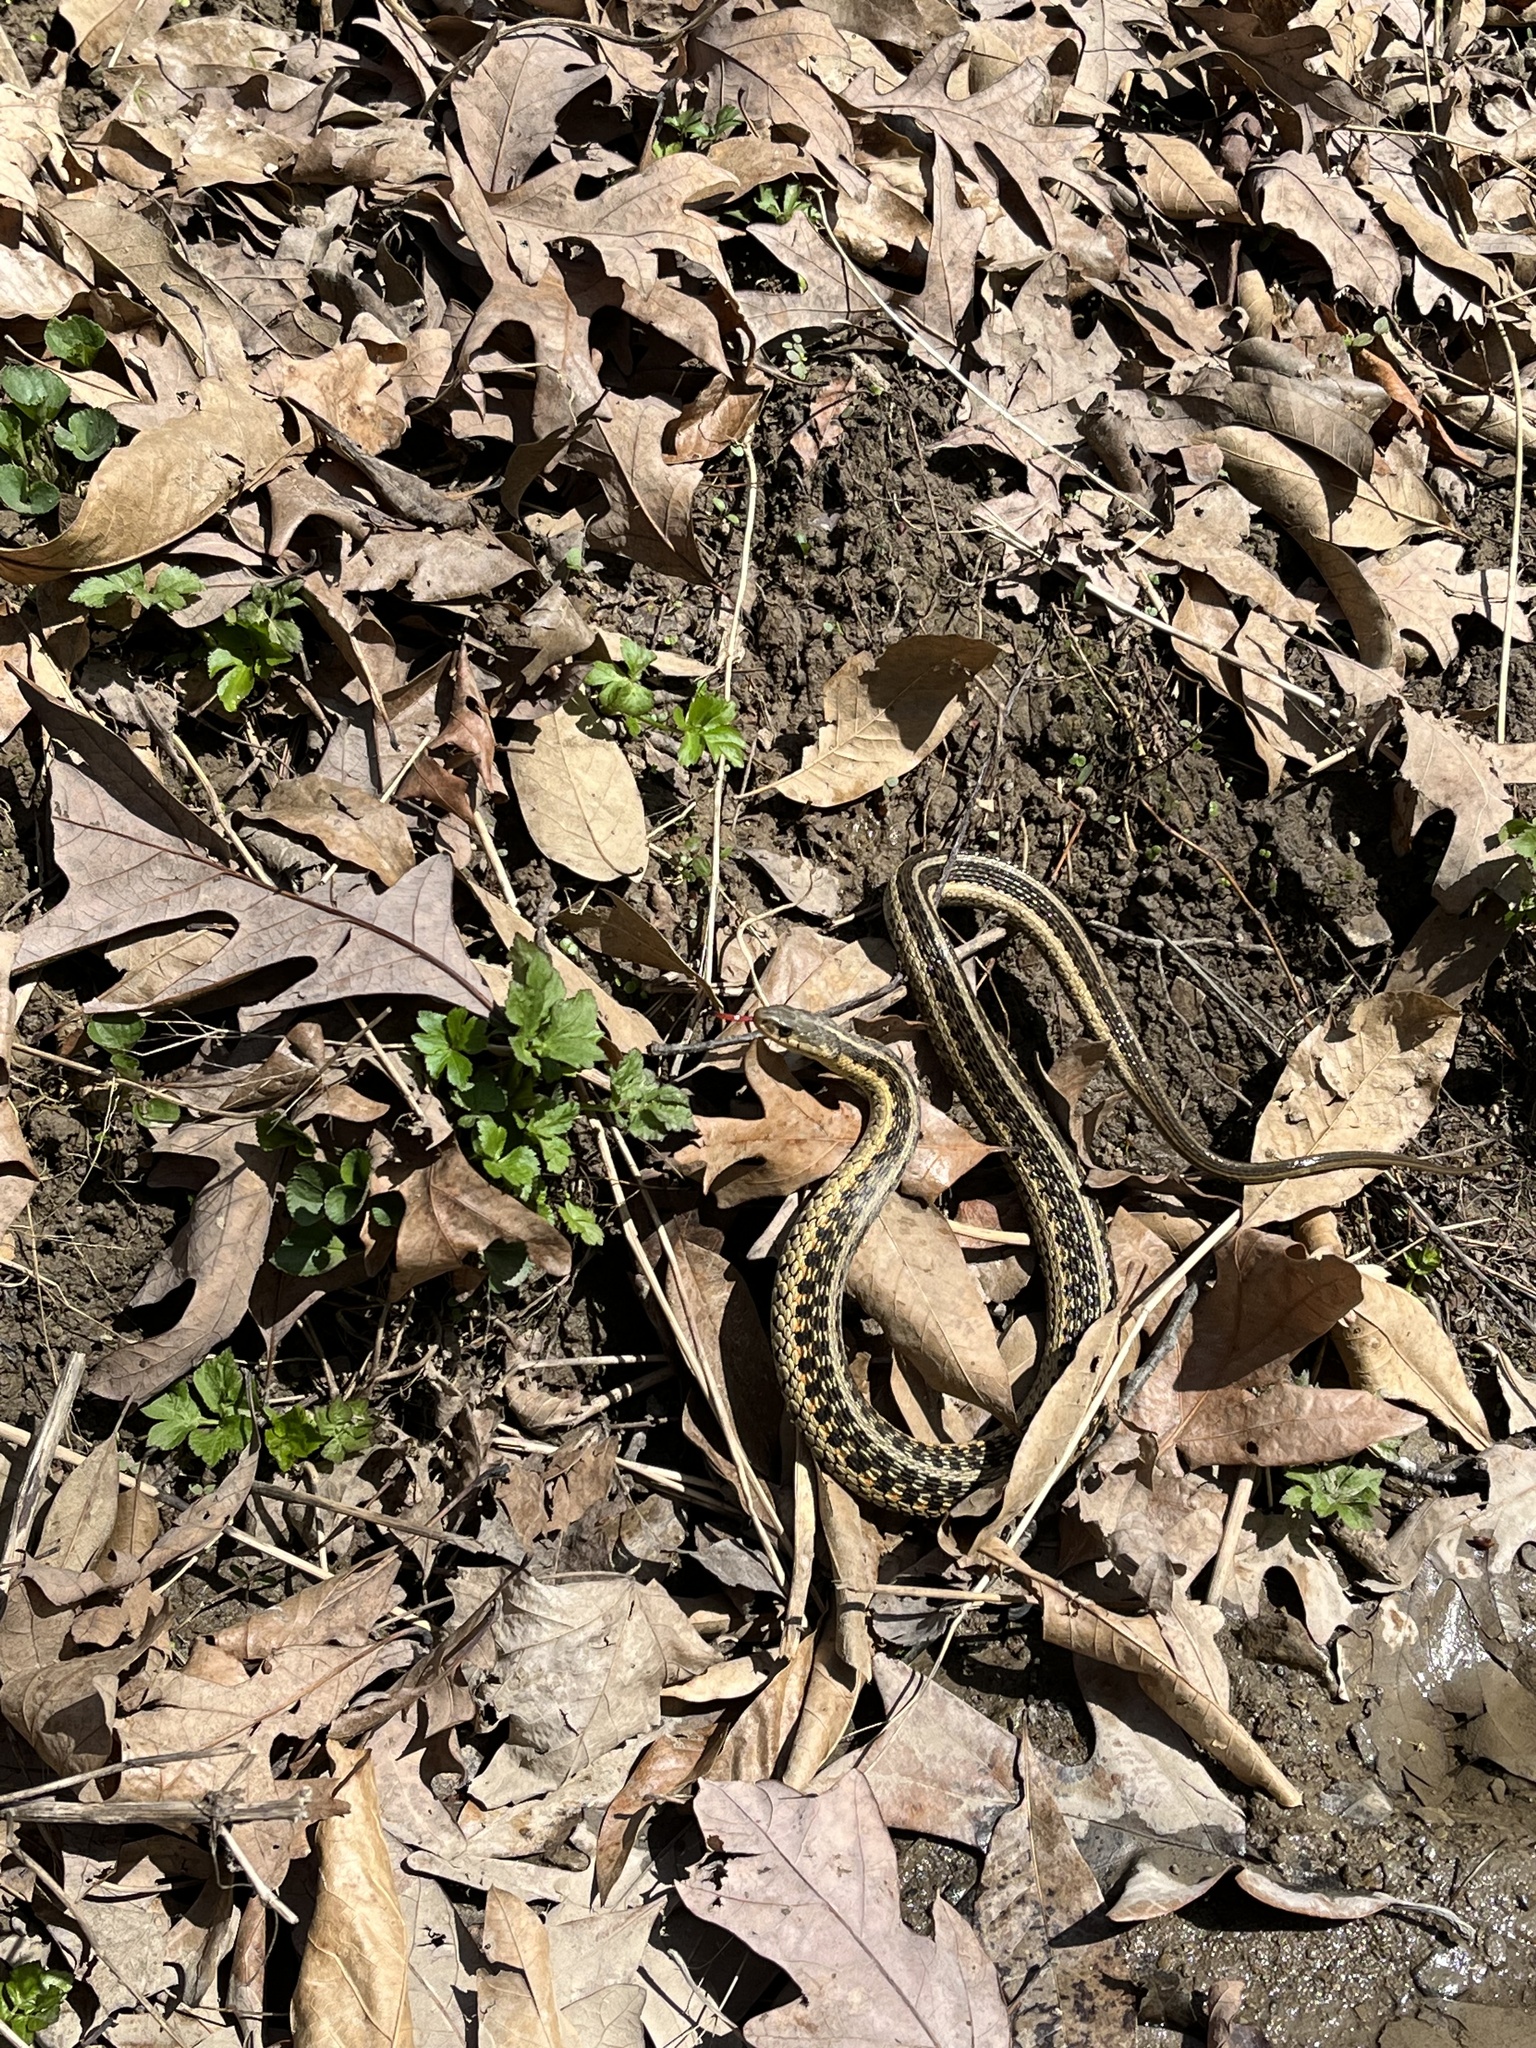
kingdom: Animalia
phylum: Chordata
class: Squamata
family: Colubridae
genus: Thamnophis
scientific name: Thamnophis sirtalis
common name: Common garter snake
